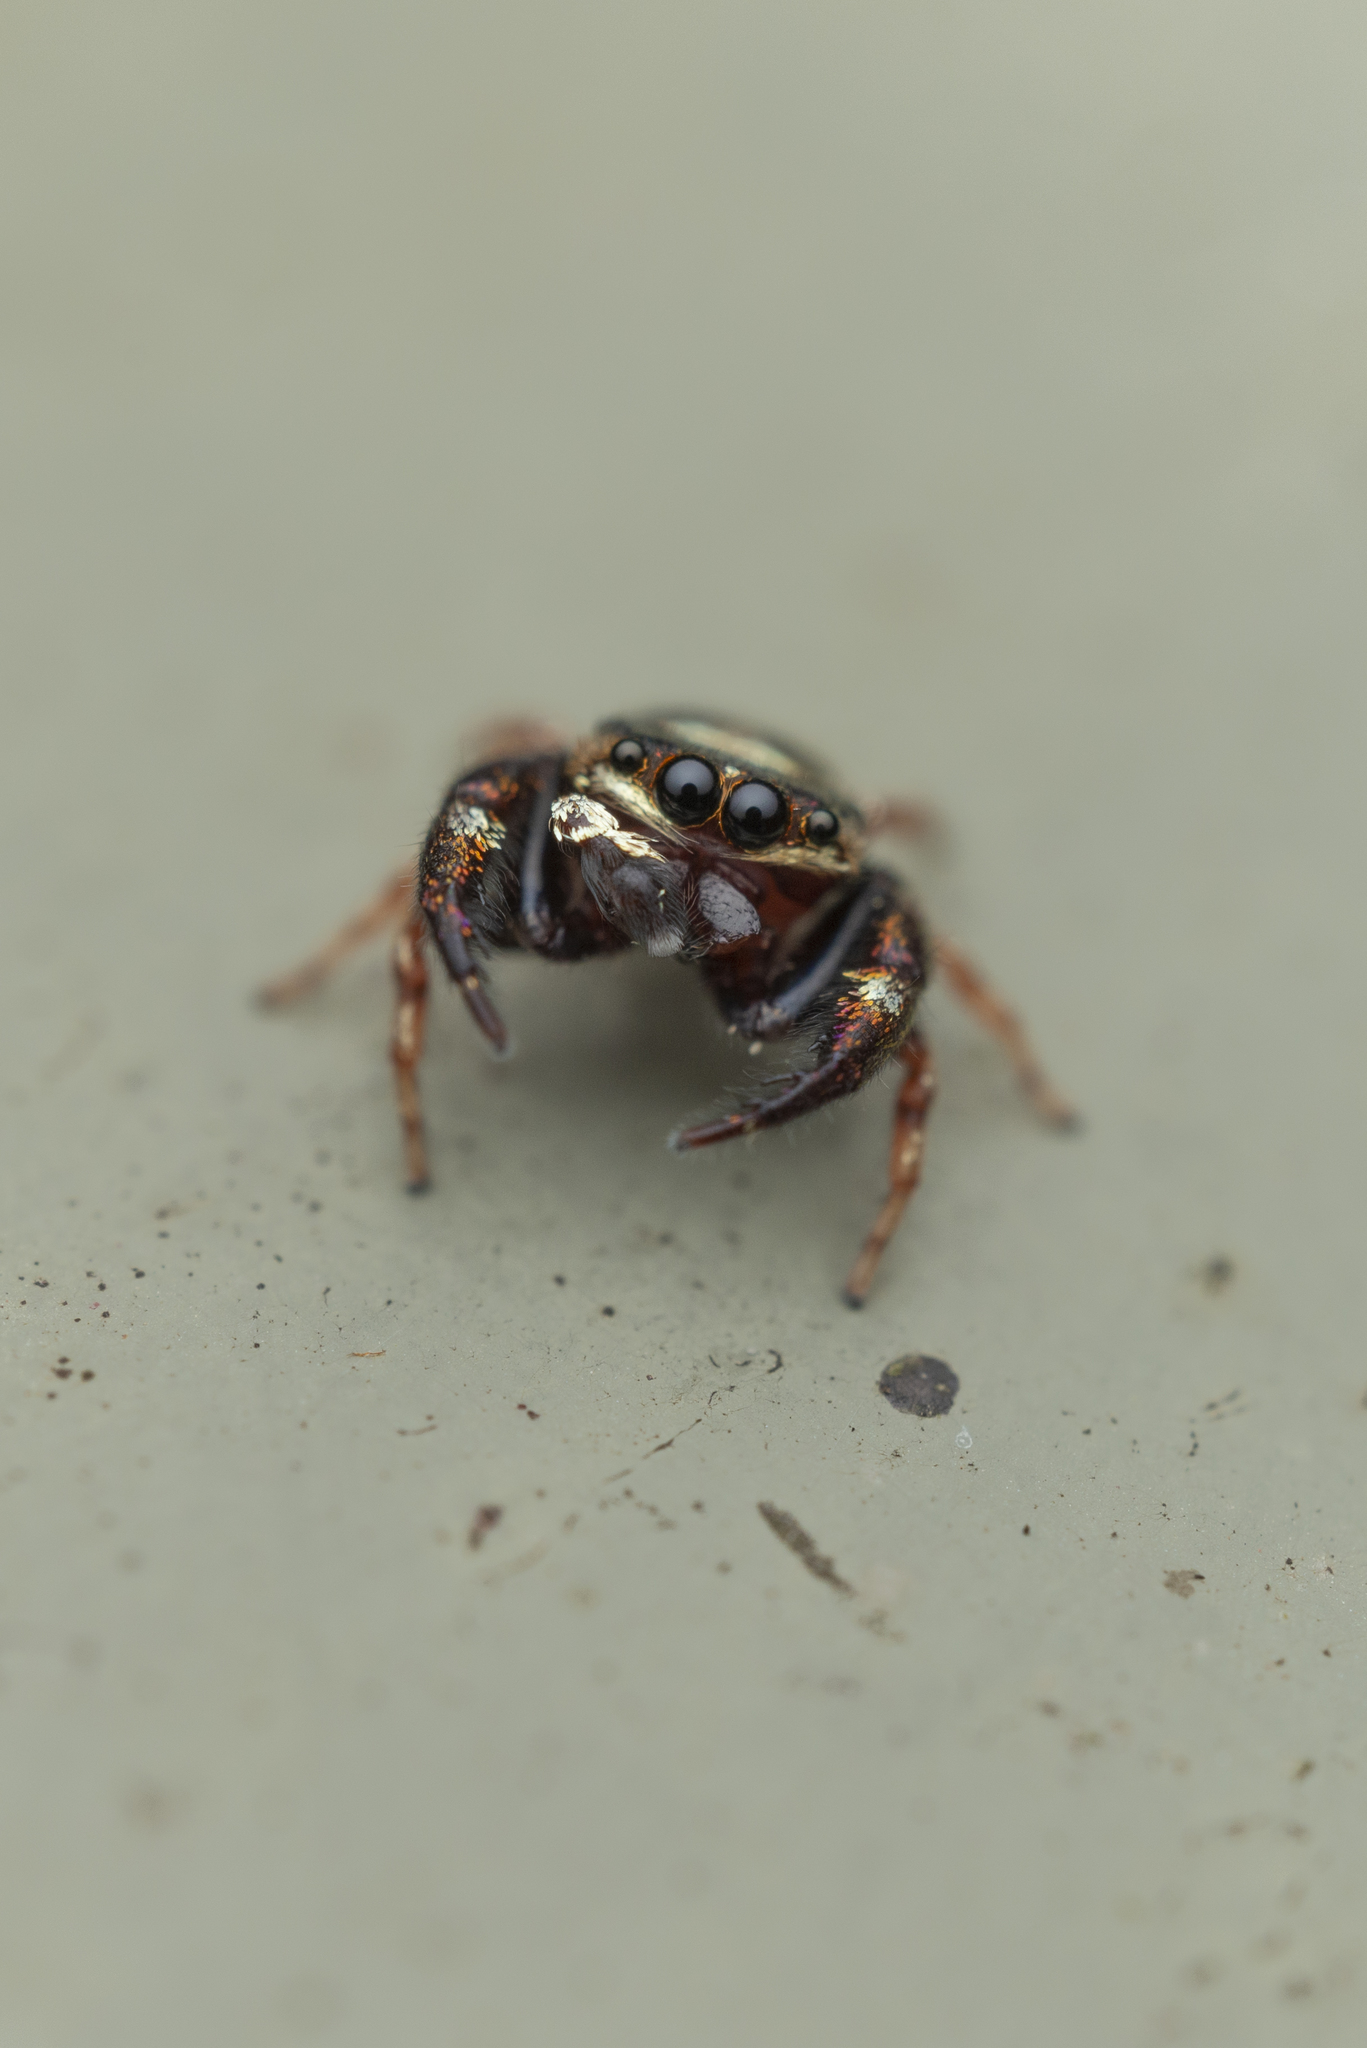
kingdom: Animalia
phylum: Arthropoda
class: Arachnida
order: Araneae
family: Salticidae
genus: Irura
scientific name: Irura bidenticulata
